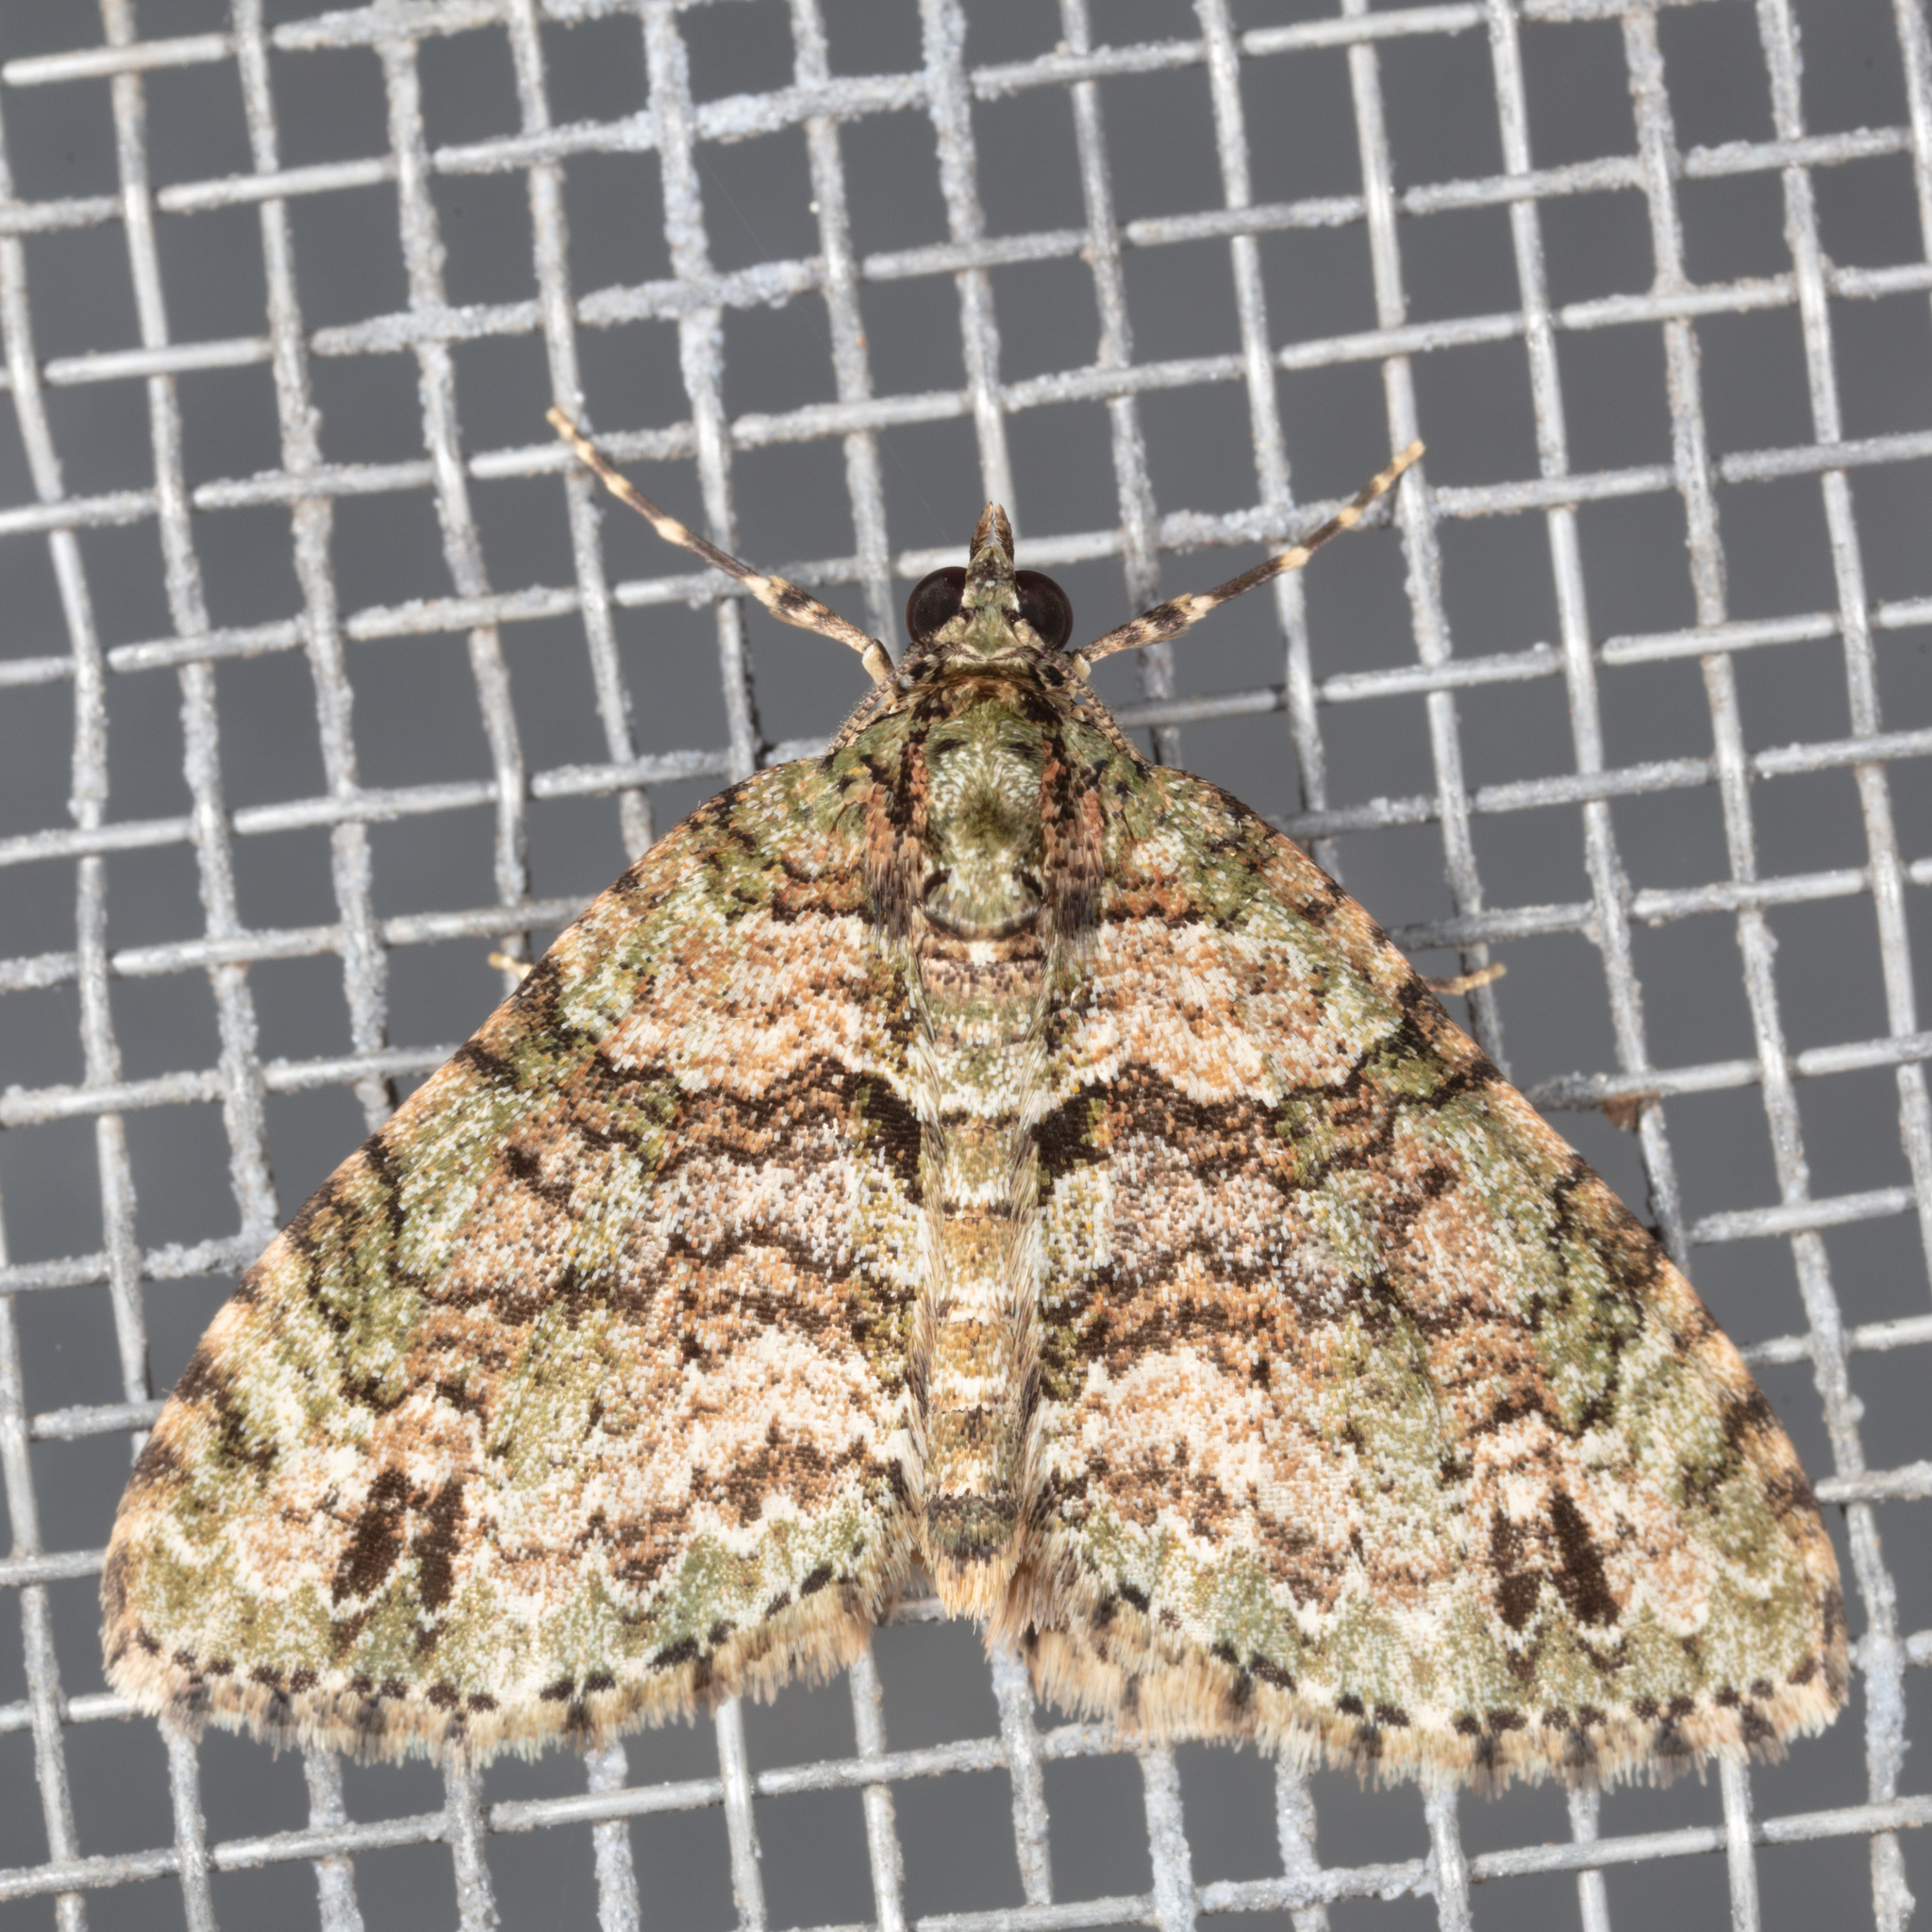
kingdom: Animalia
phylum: Arthropoda
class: Insecta
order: Lepidoptera
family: Geometridae
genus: Hammaptera
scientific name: Hammaptera parinotata
